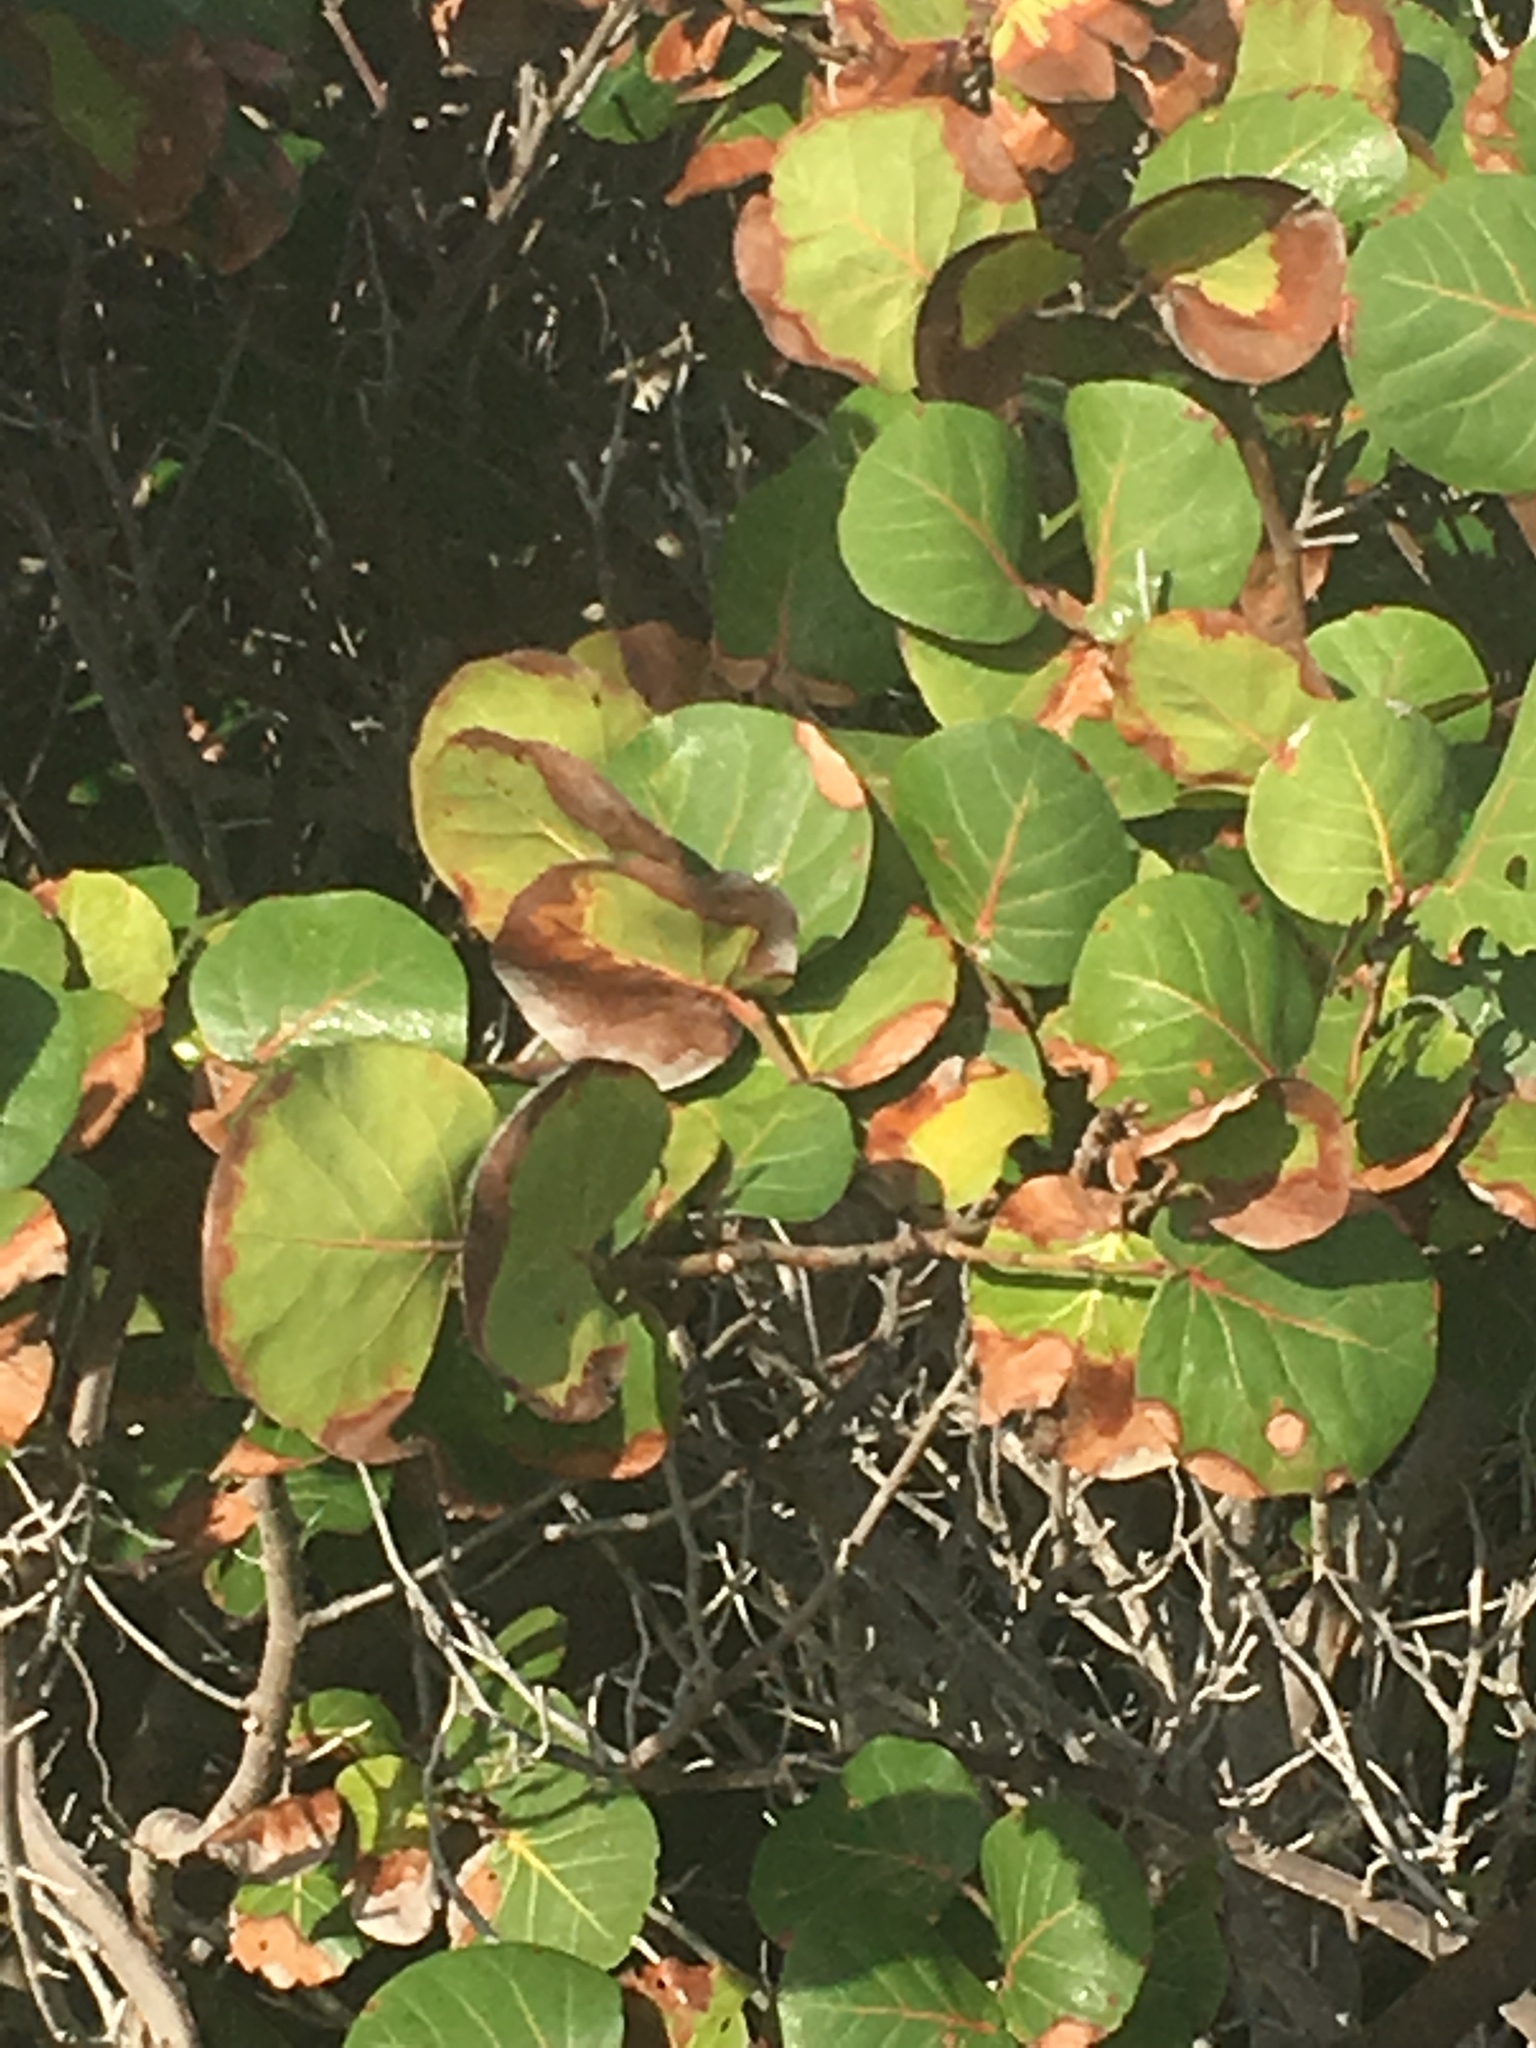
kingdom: Plantae
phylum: Tracheophyta
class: Magnoliopsida
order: Caryophyllales
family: Polygonaceae
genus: Coccoloba
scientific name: Coccoloba uvifera
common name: Seagrape
